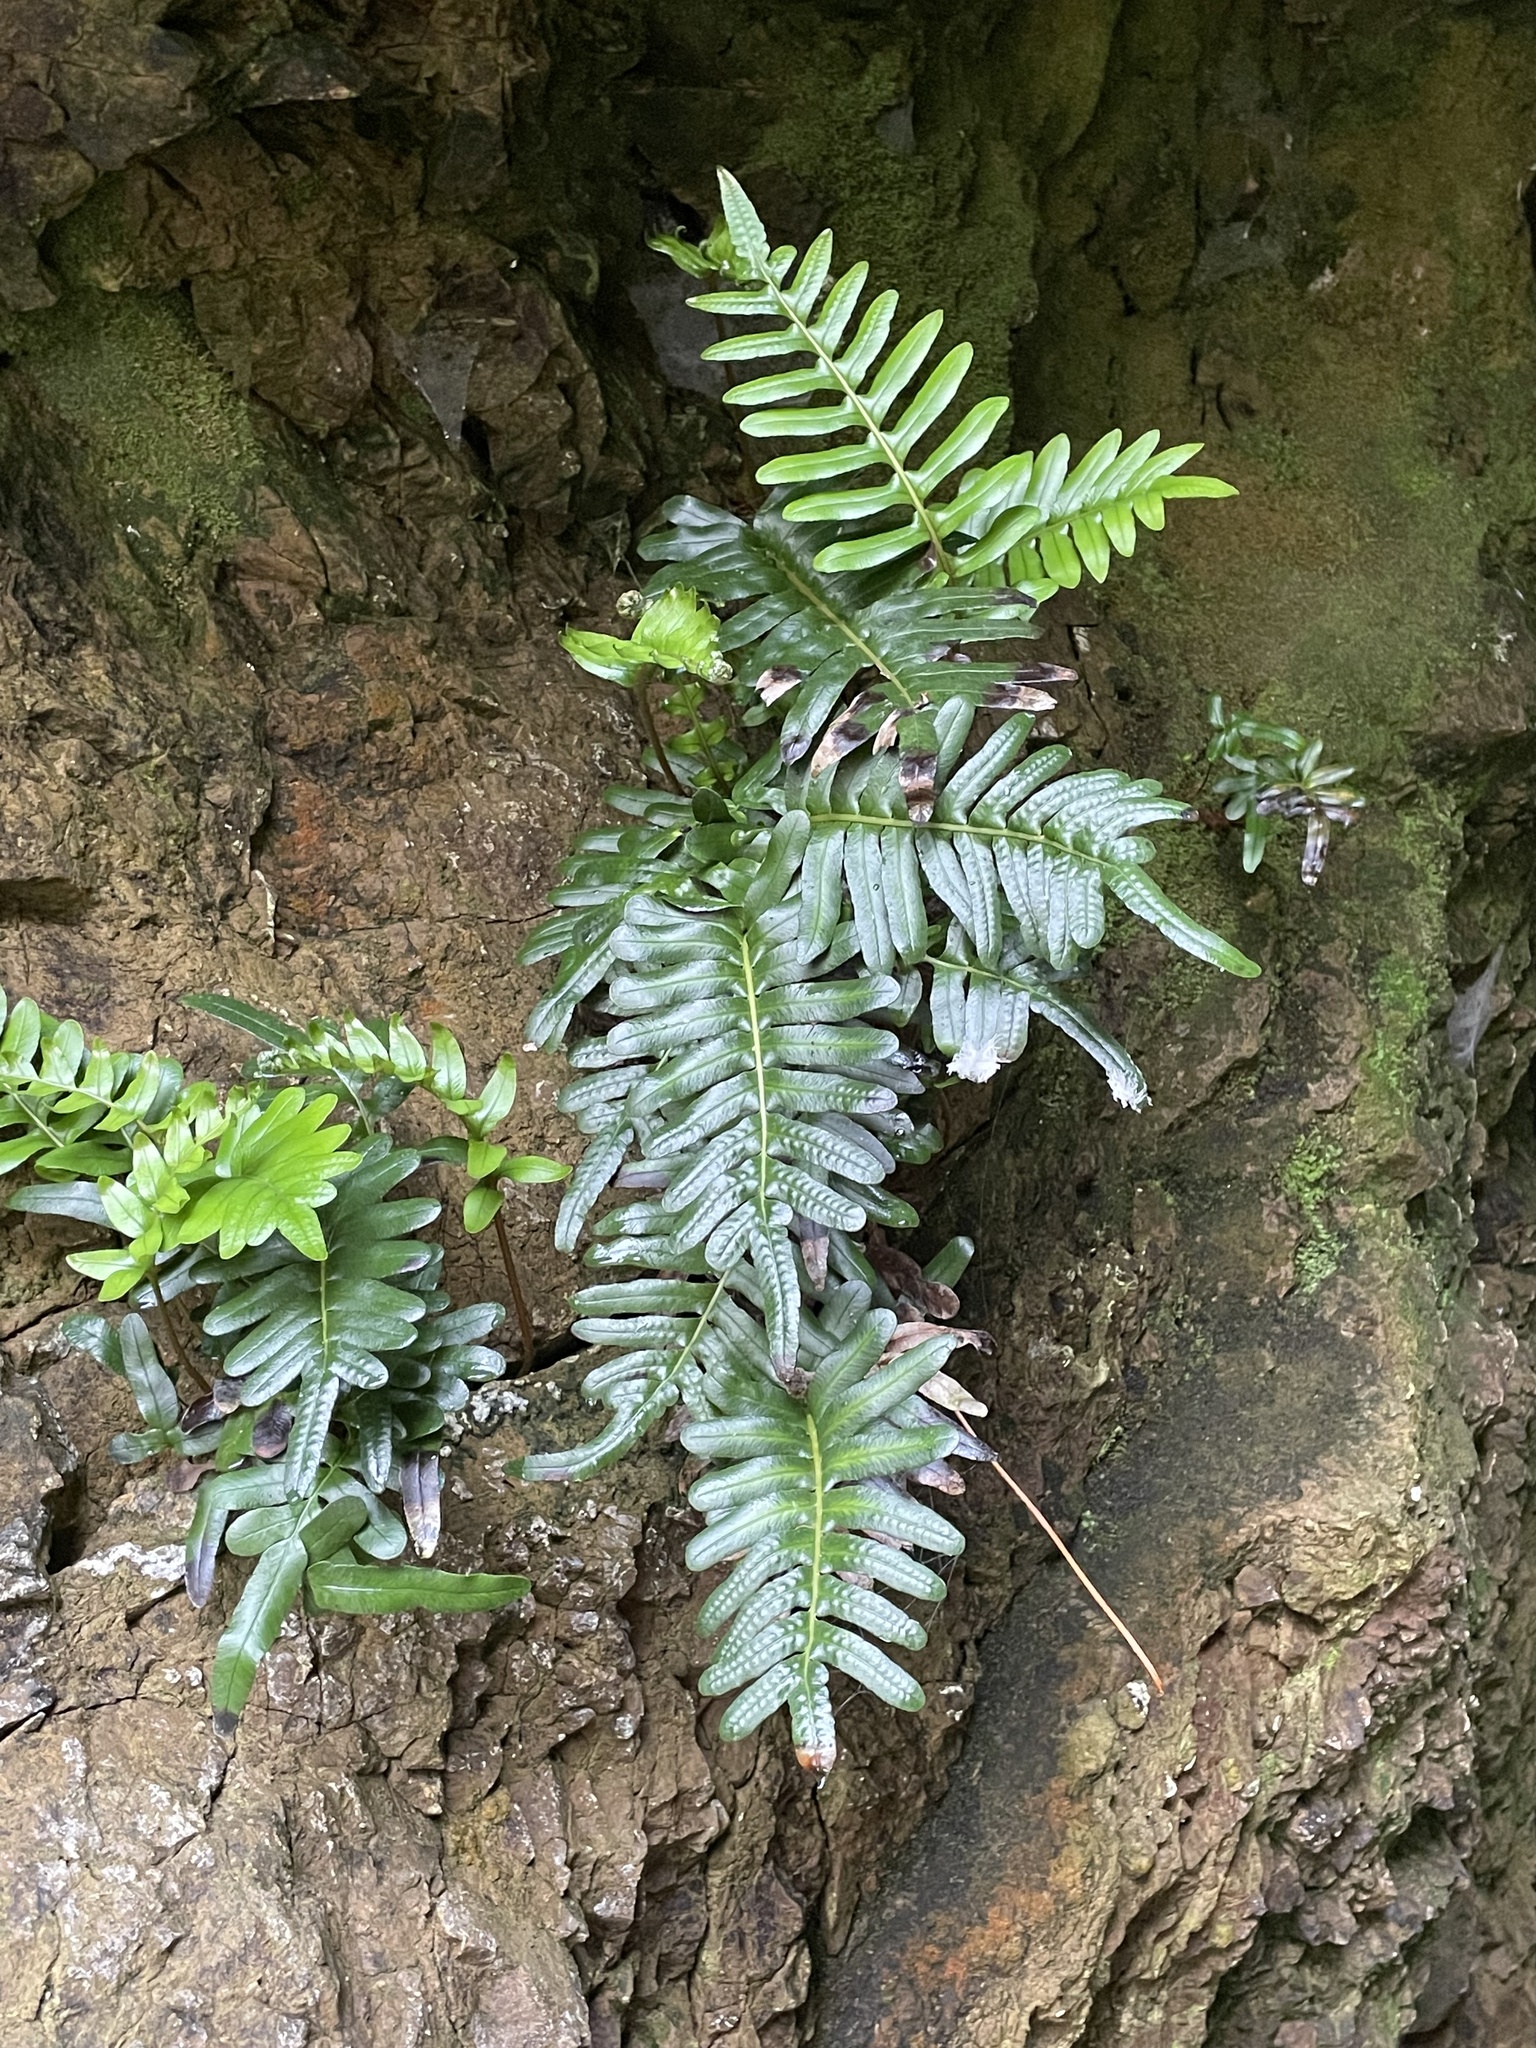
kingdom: Plantae
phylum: Tracheophyta
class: Polypodiopsida
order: Polypodiales
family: Polypodiaceae
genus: Polypodium
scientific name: Polypodium scouleri
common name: Scouler's polypody
